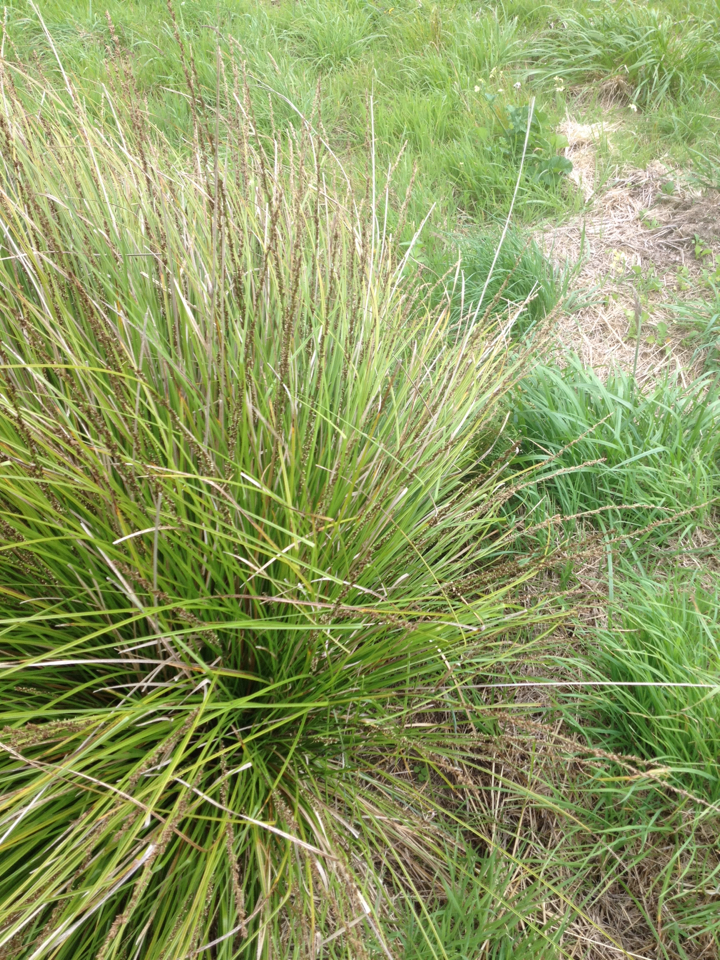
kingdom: Plantae
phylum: Tracheophyta
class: Liliopsida
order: Poales
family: Cyperaceae
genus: Carex
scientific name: Carex virgata
